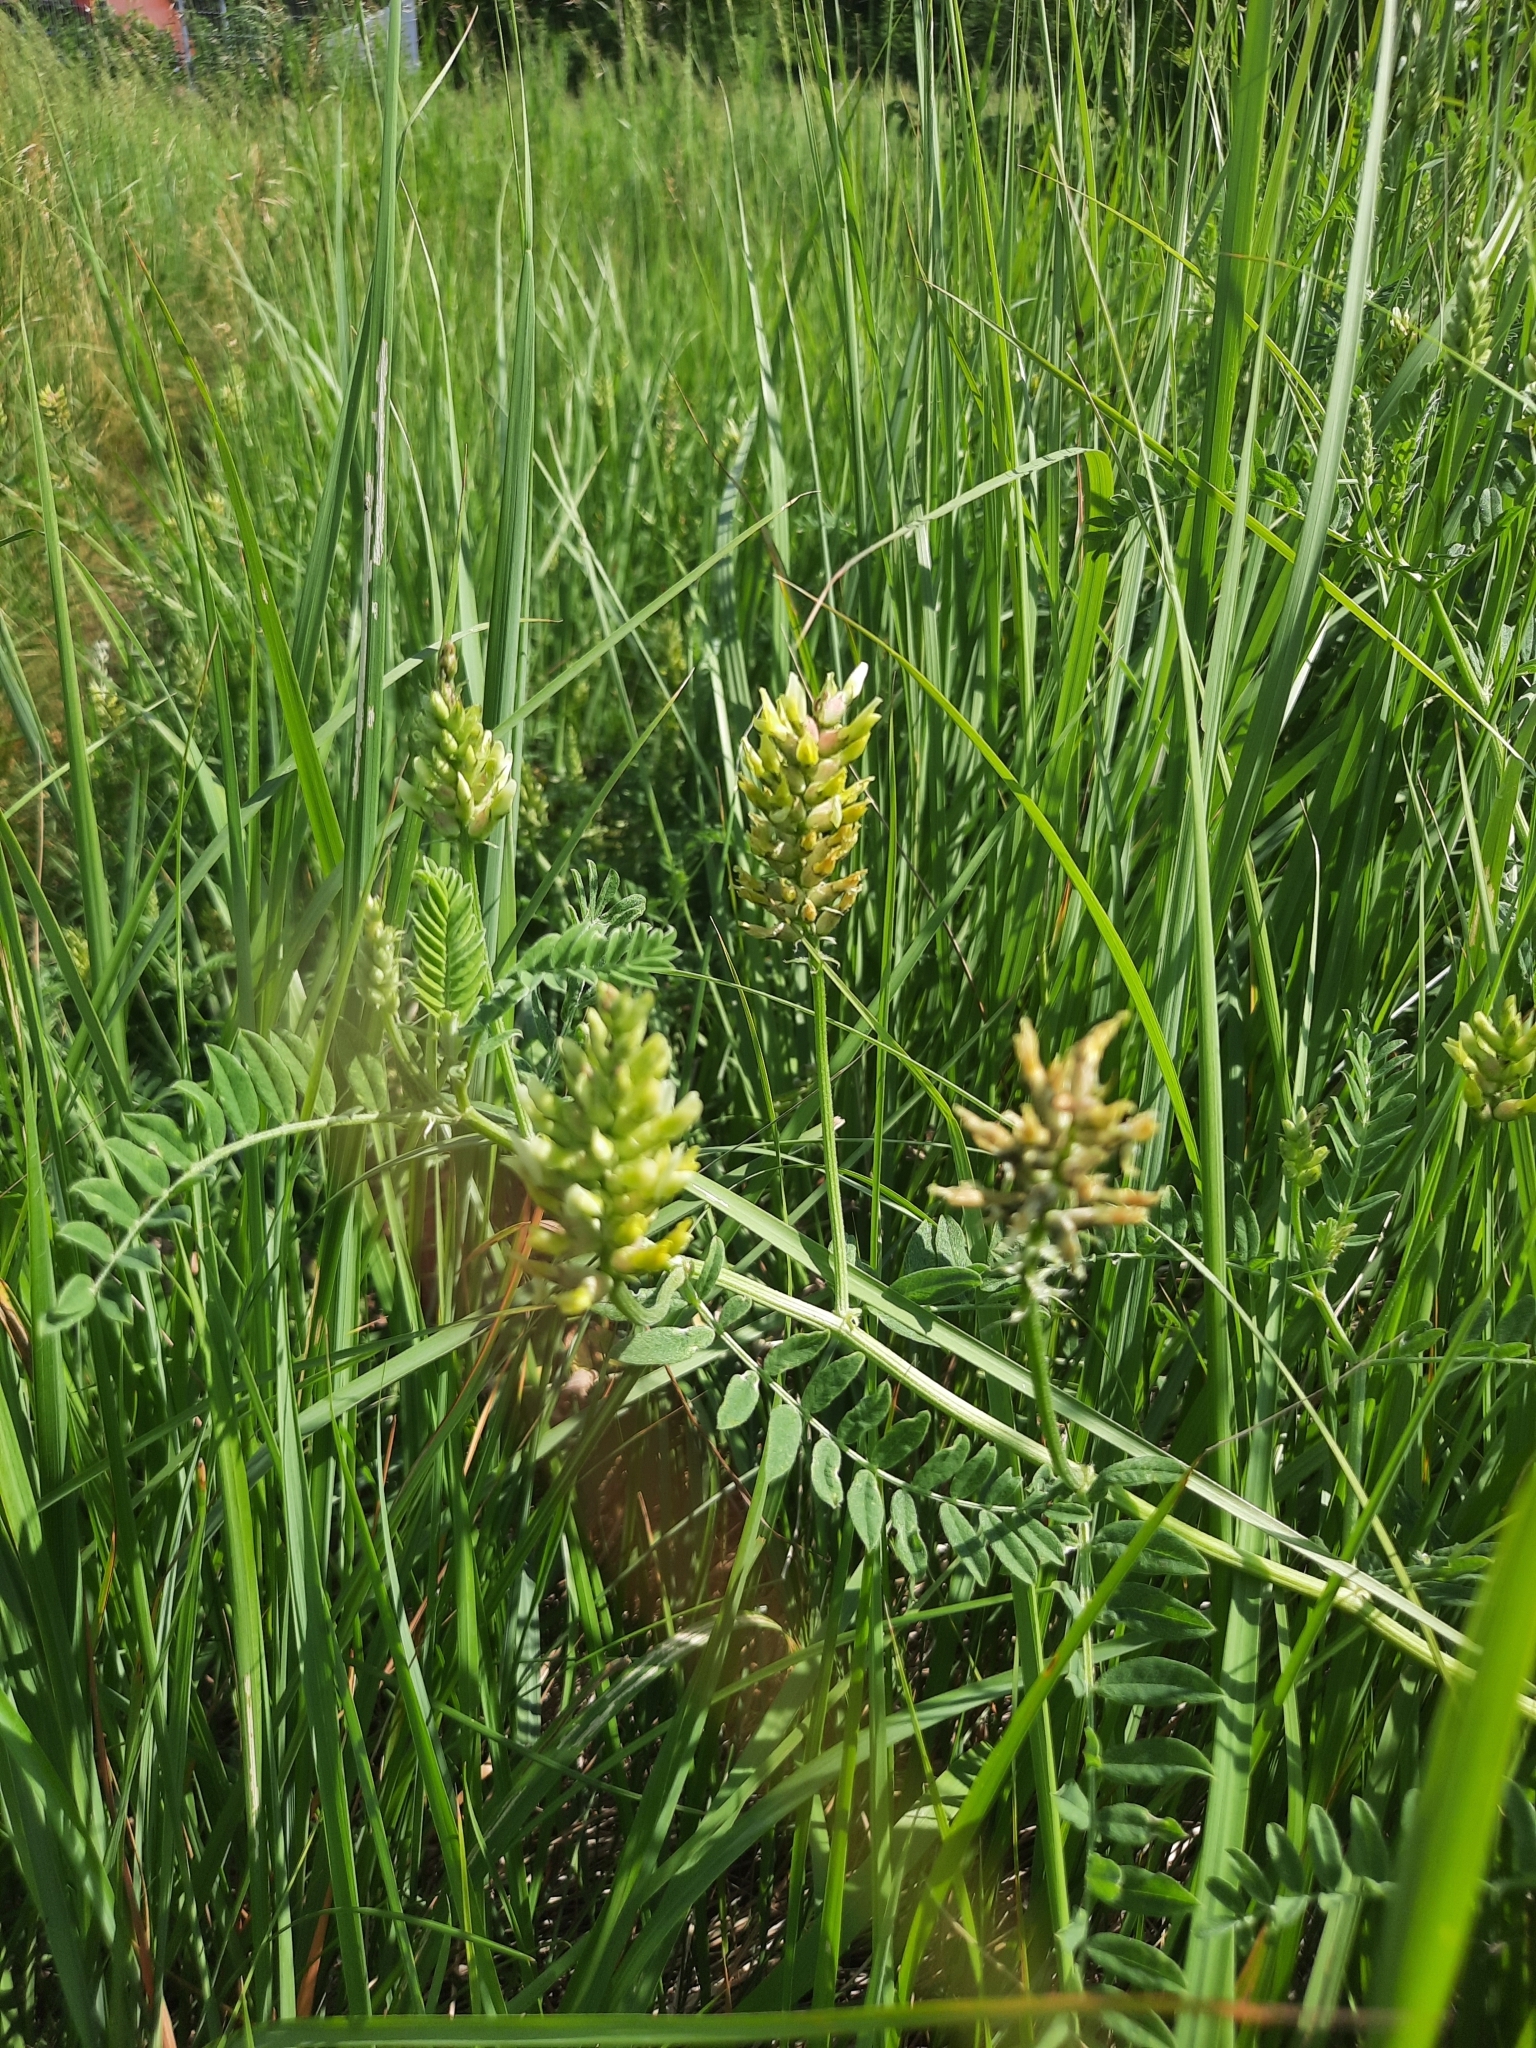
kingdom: Plantae
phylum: Tracheophyta
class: Magnoliopsida
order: Fabales
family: Fabaceae
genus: Astragalus
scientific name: Astragalus cicer
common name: Chick-pea milk-vetch
